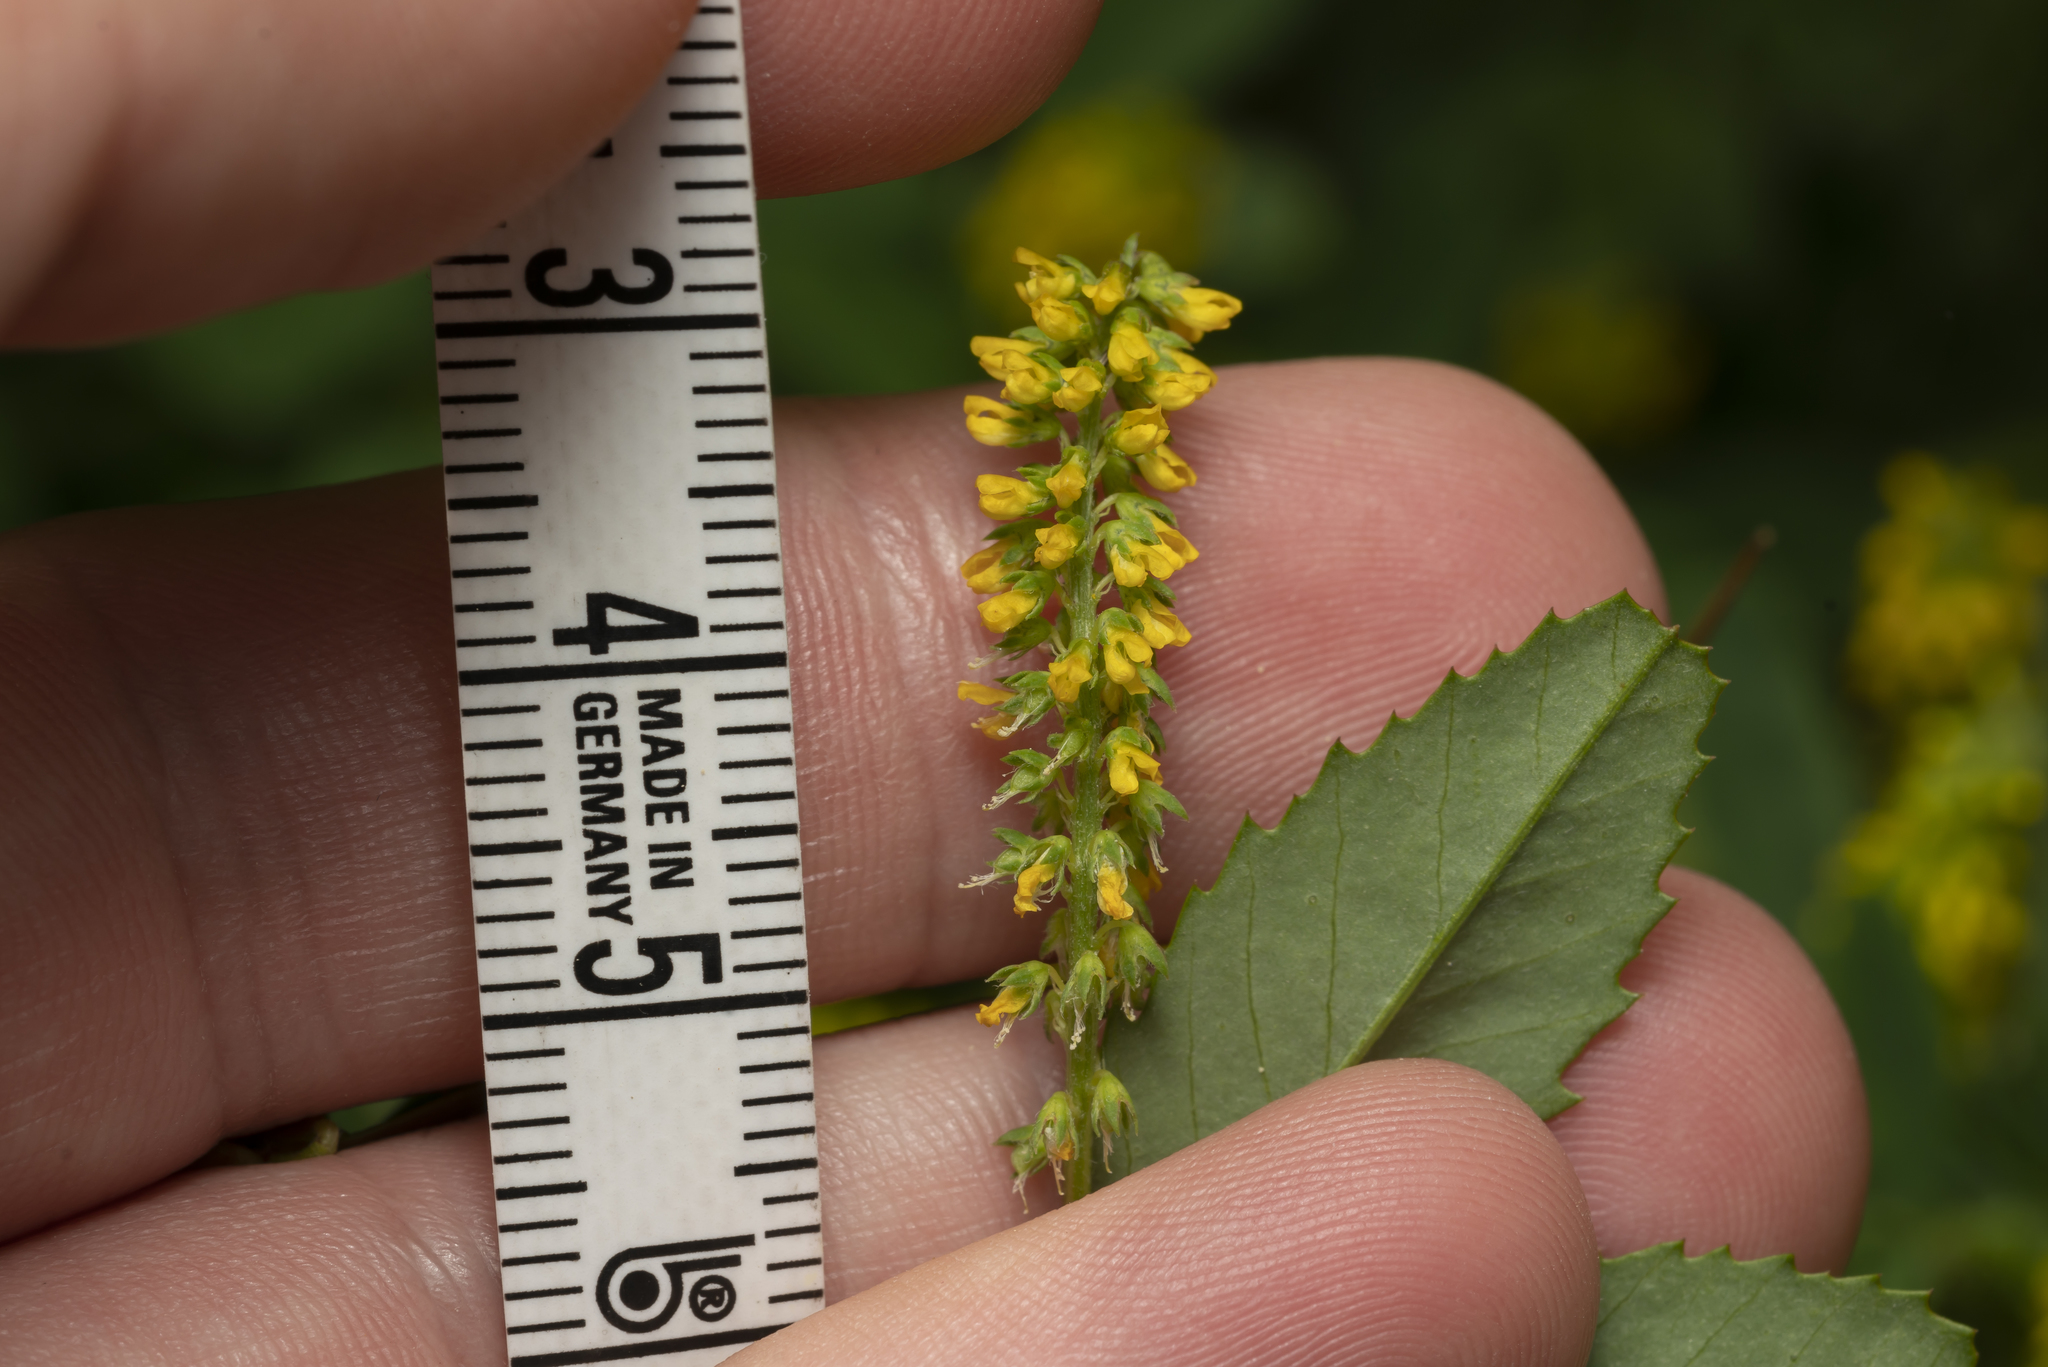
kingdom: Plantae
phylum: Tracheophyta
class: Magnoliopsida
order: Fabales
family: Fabaceae
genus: Melilotus
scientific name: Melilotus indicus
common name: Small melilot
